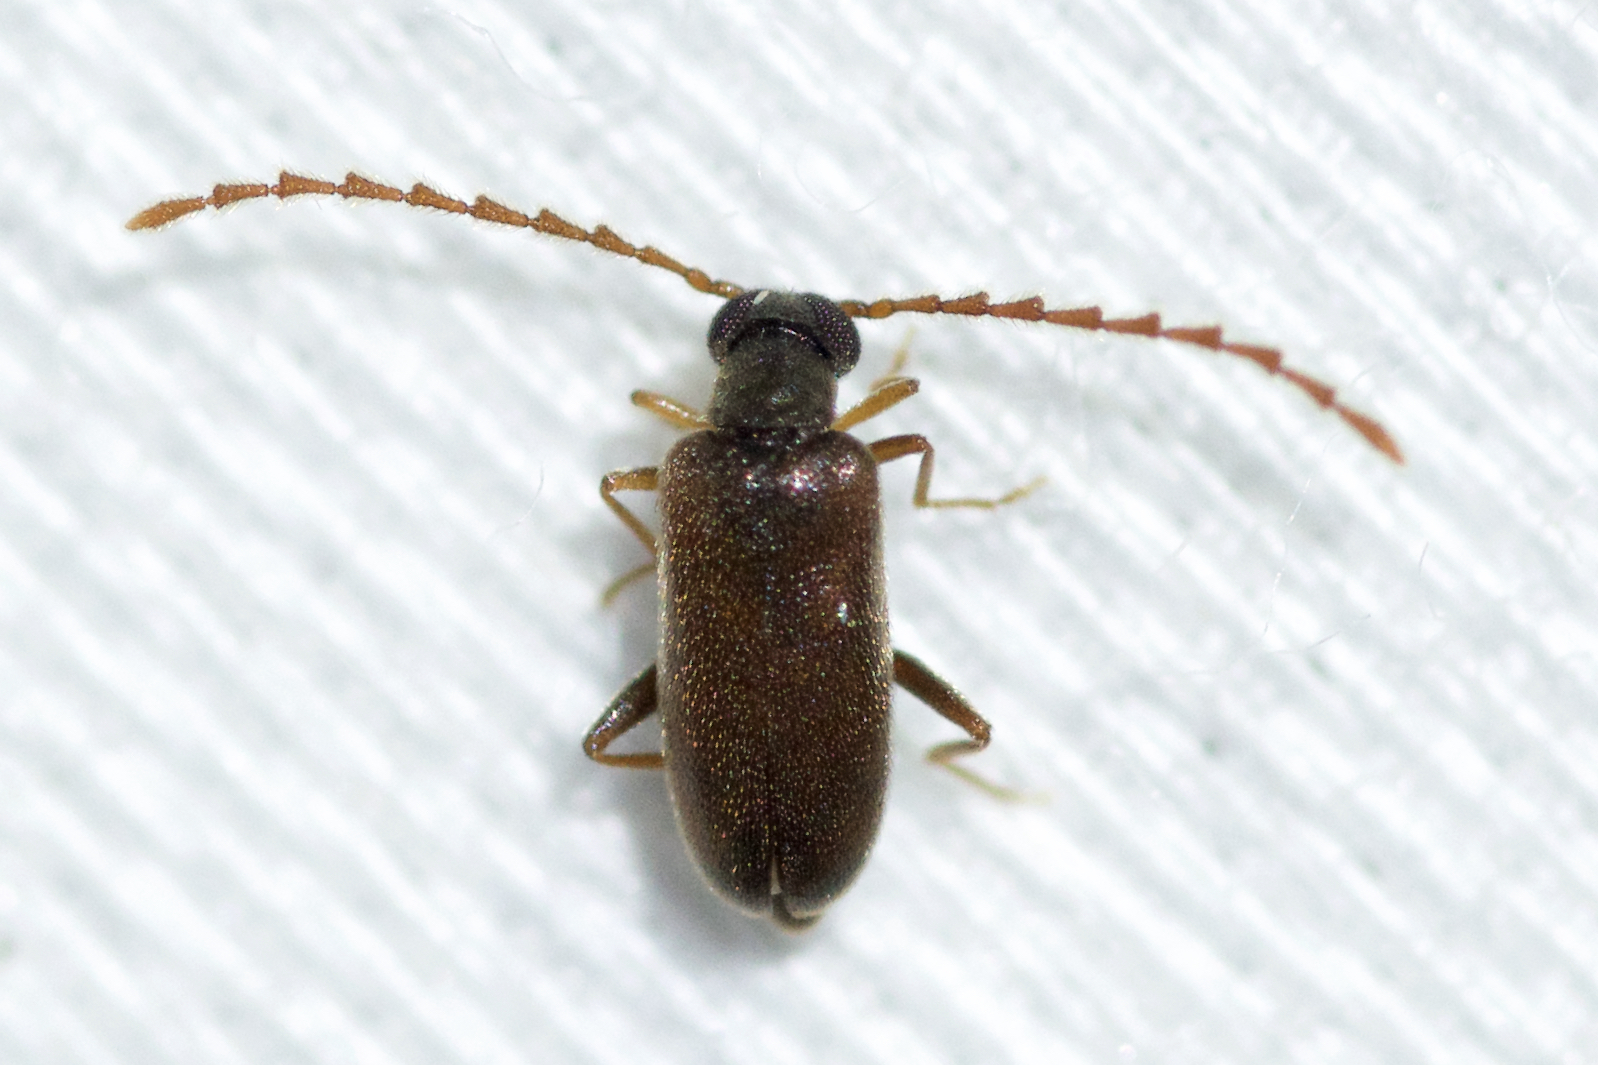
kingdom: Animalia
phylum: Arthropoda
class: Insecta
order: Coleoptera
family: Aderidae
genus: Euglenes
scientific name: Euglenes pygmaeus
